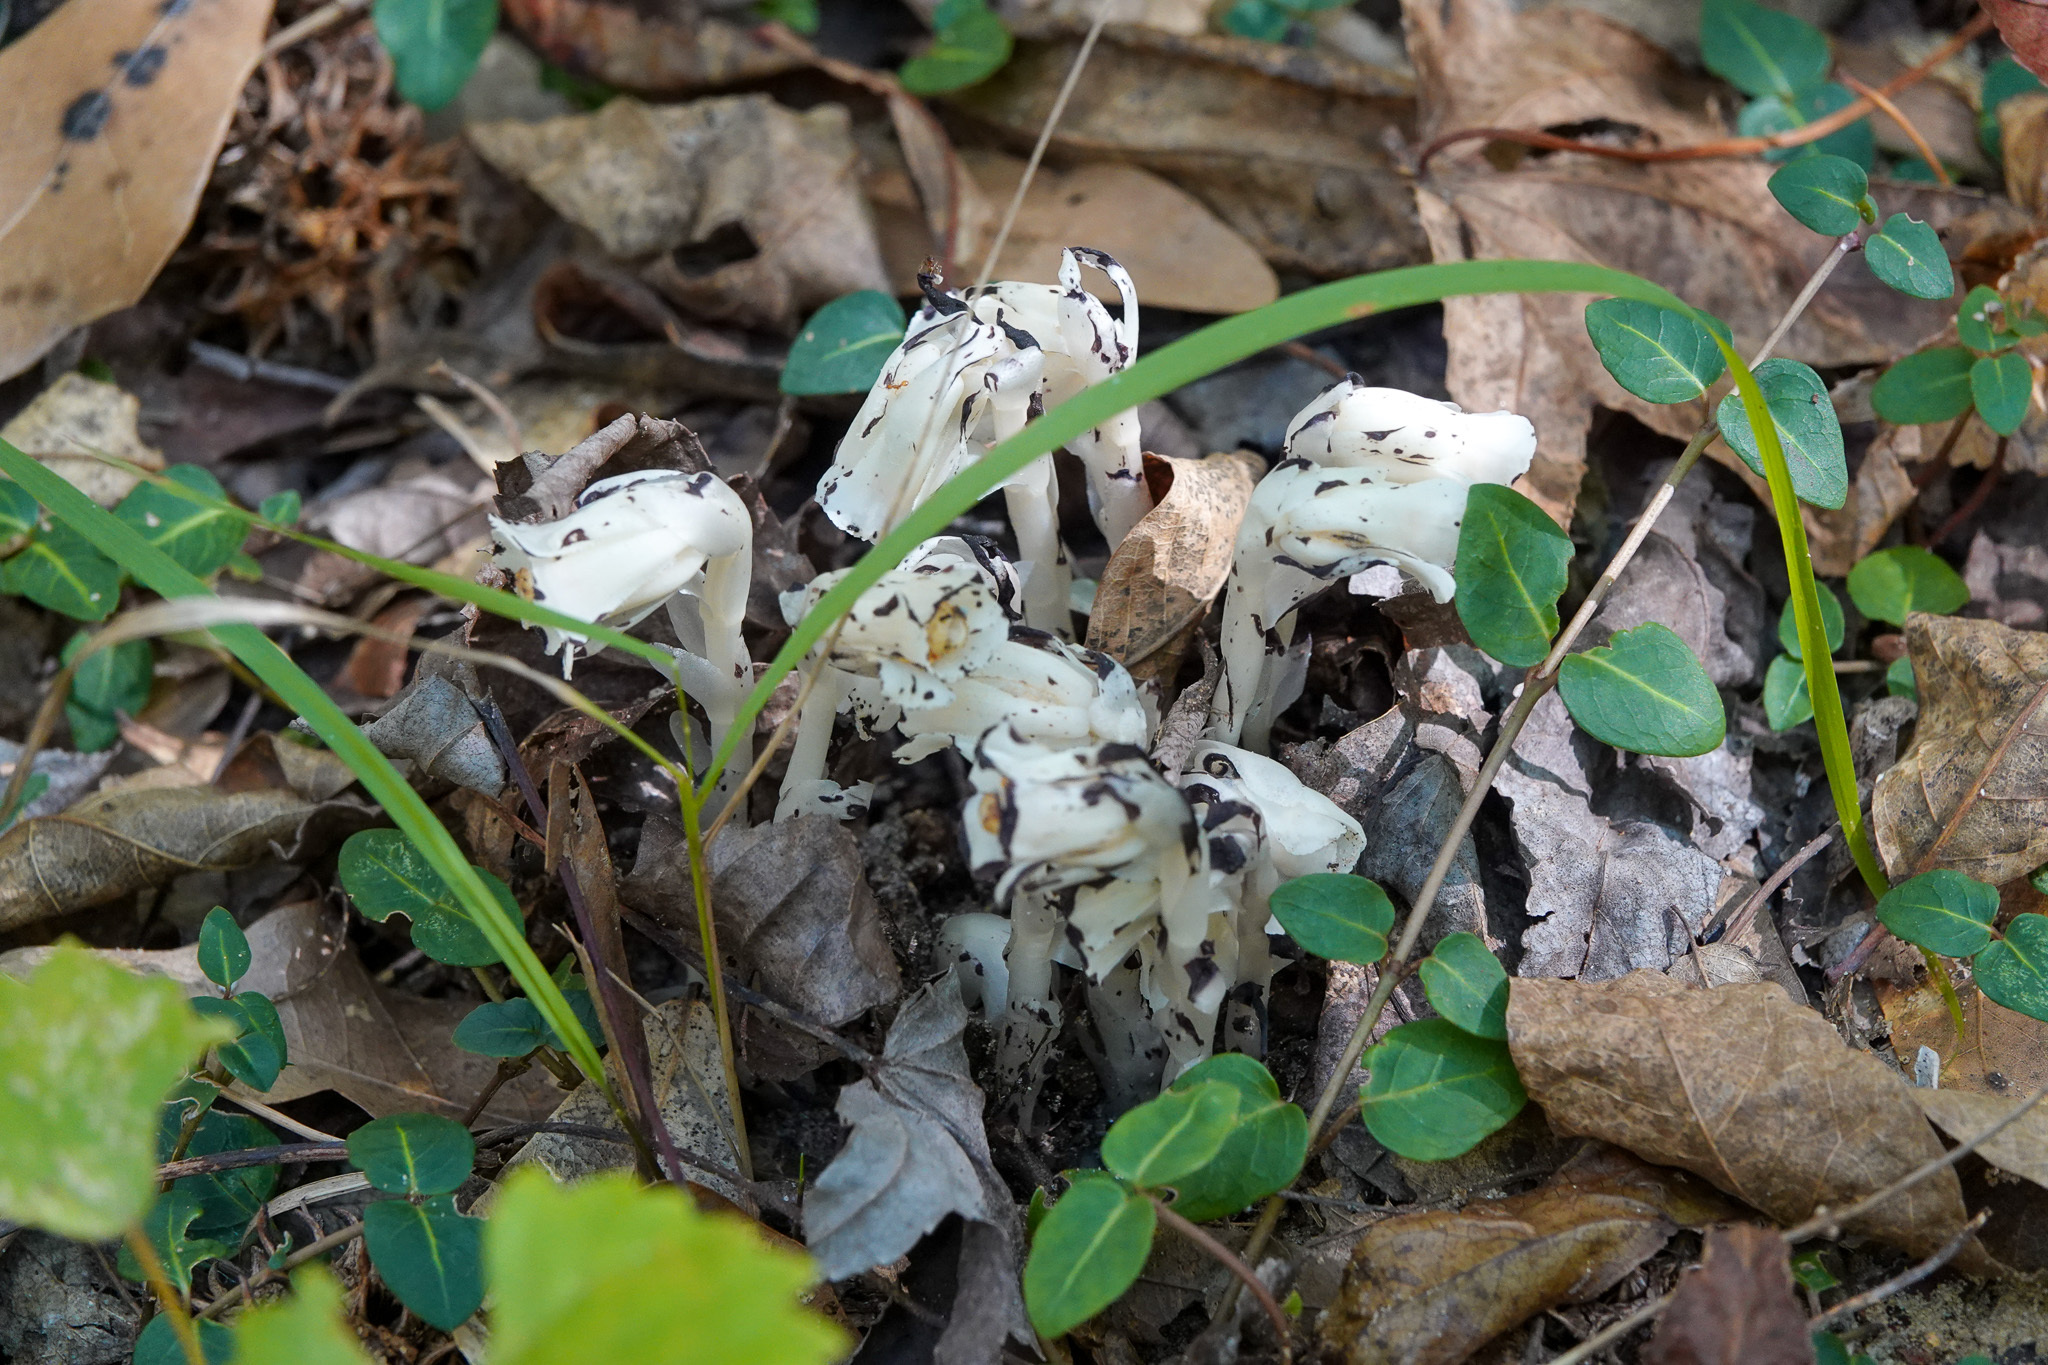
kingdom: Plantae
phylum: Tracheophyta
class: Magnoliopsida
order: Ericales
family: Ericaceae
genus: Monotropa
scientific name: Monotropa uniflora
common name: Convulsion root
